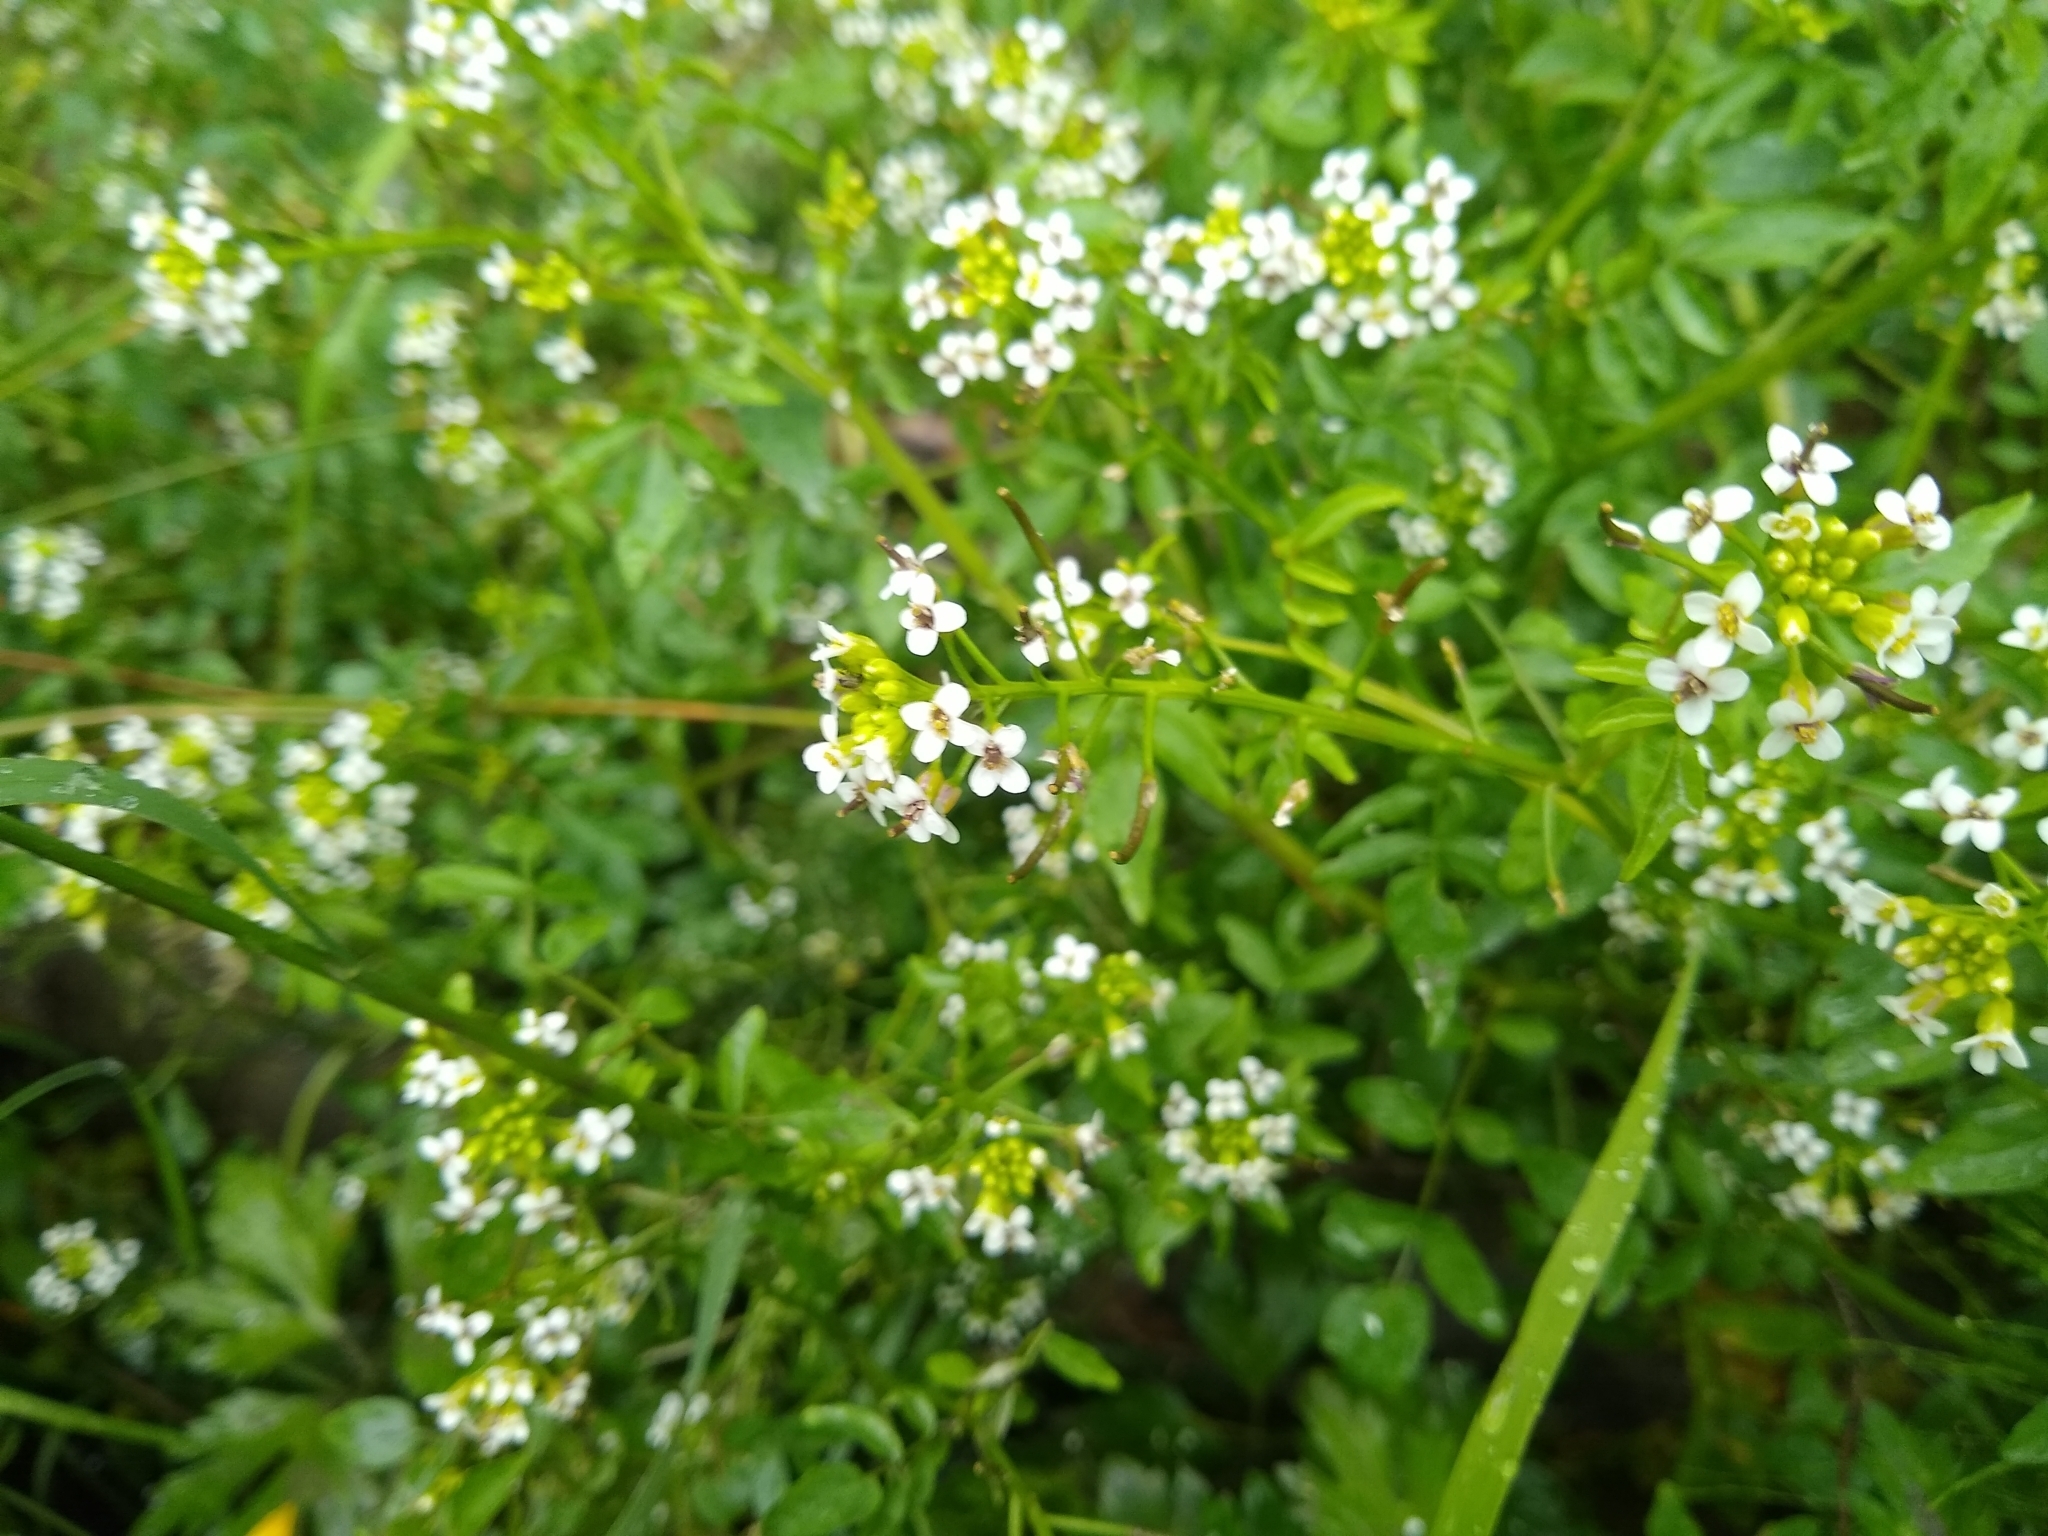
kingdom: Plantae
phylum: Tracheophyta
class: Magnoliopsida
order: Brassicales
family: Brassicaceae
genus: Nasturtium
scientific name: Nasturtium officinale
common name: Watercress
